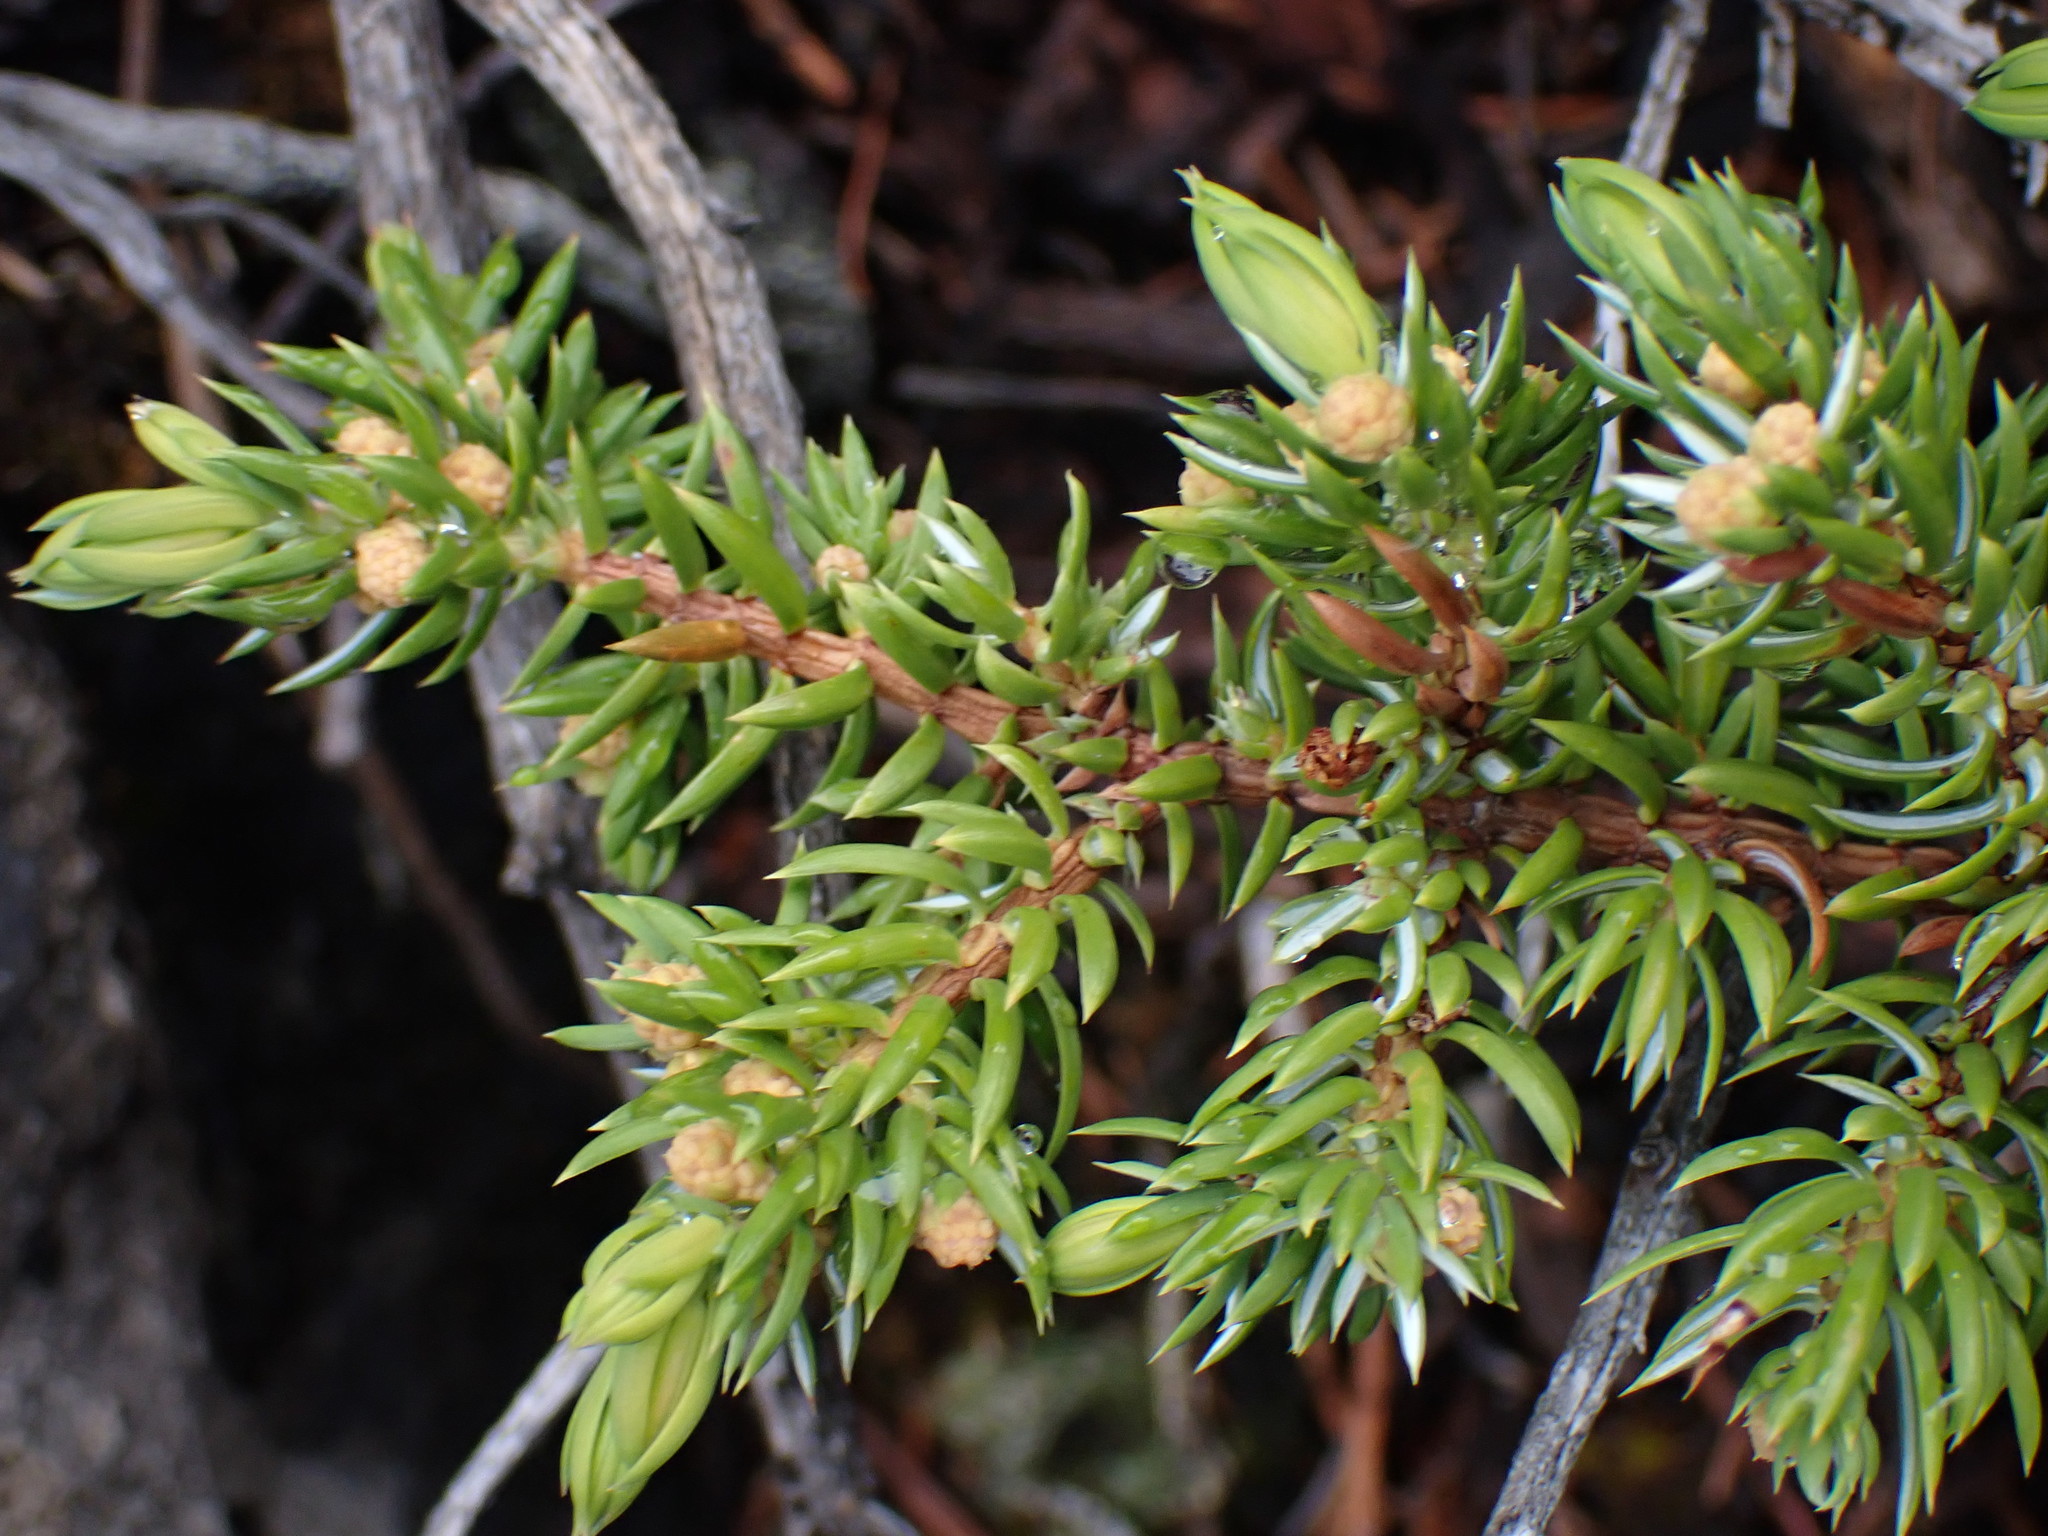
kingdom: Plantae
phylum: Tracheophyta
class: Pinopsida
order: Pinales
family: Cupressaceae
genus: Juniperus
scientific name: Juniperus communis
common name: Common juniper
